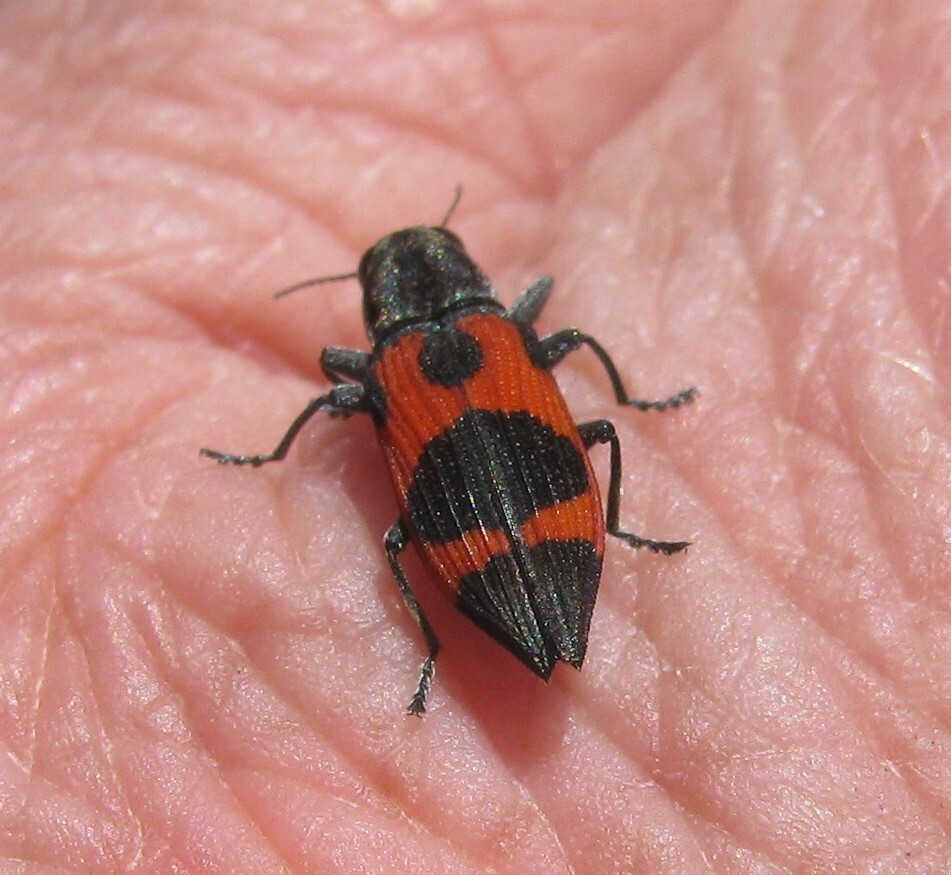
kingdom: Animalia
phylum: Arthropoda
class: Insecta
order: Coleoptera
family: Buprestidae
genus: Nascioides
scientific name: Nascioides parryi
